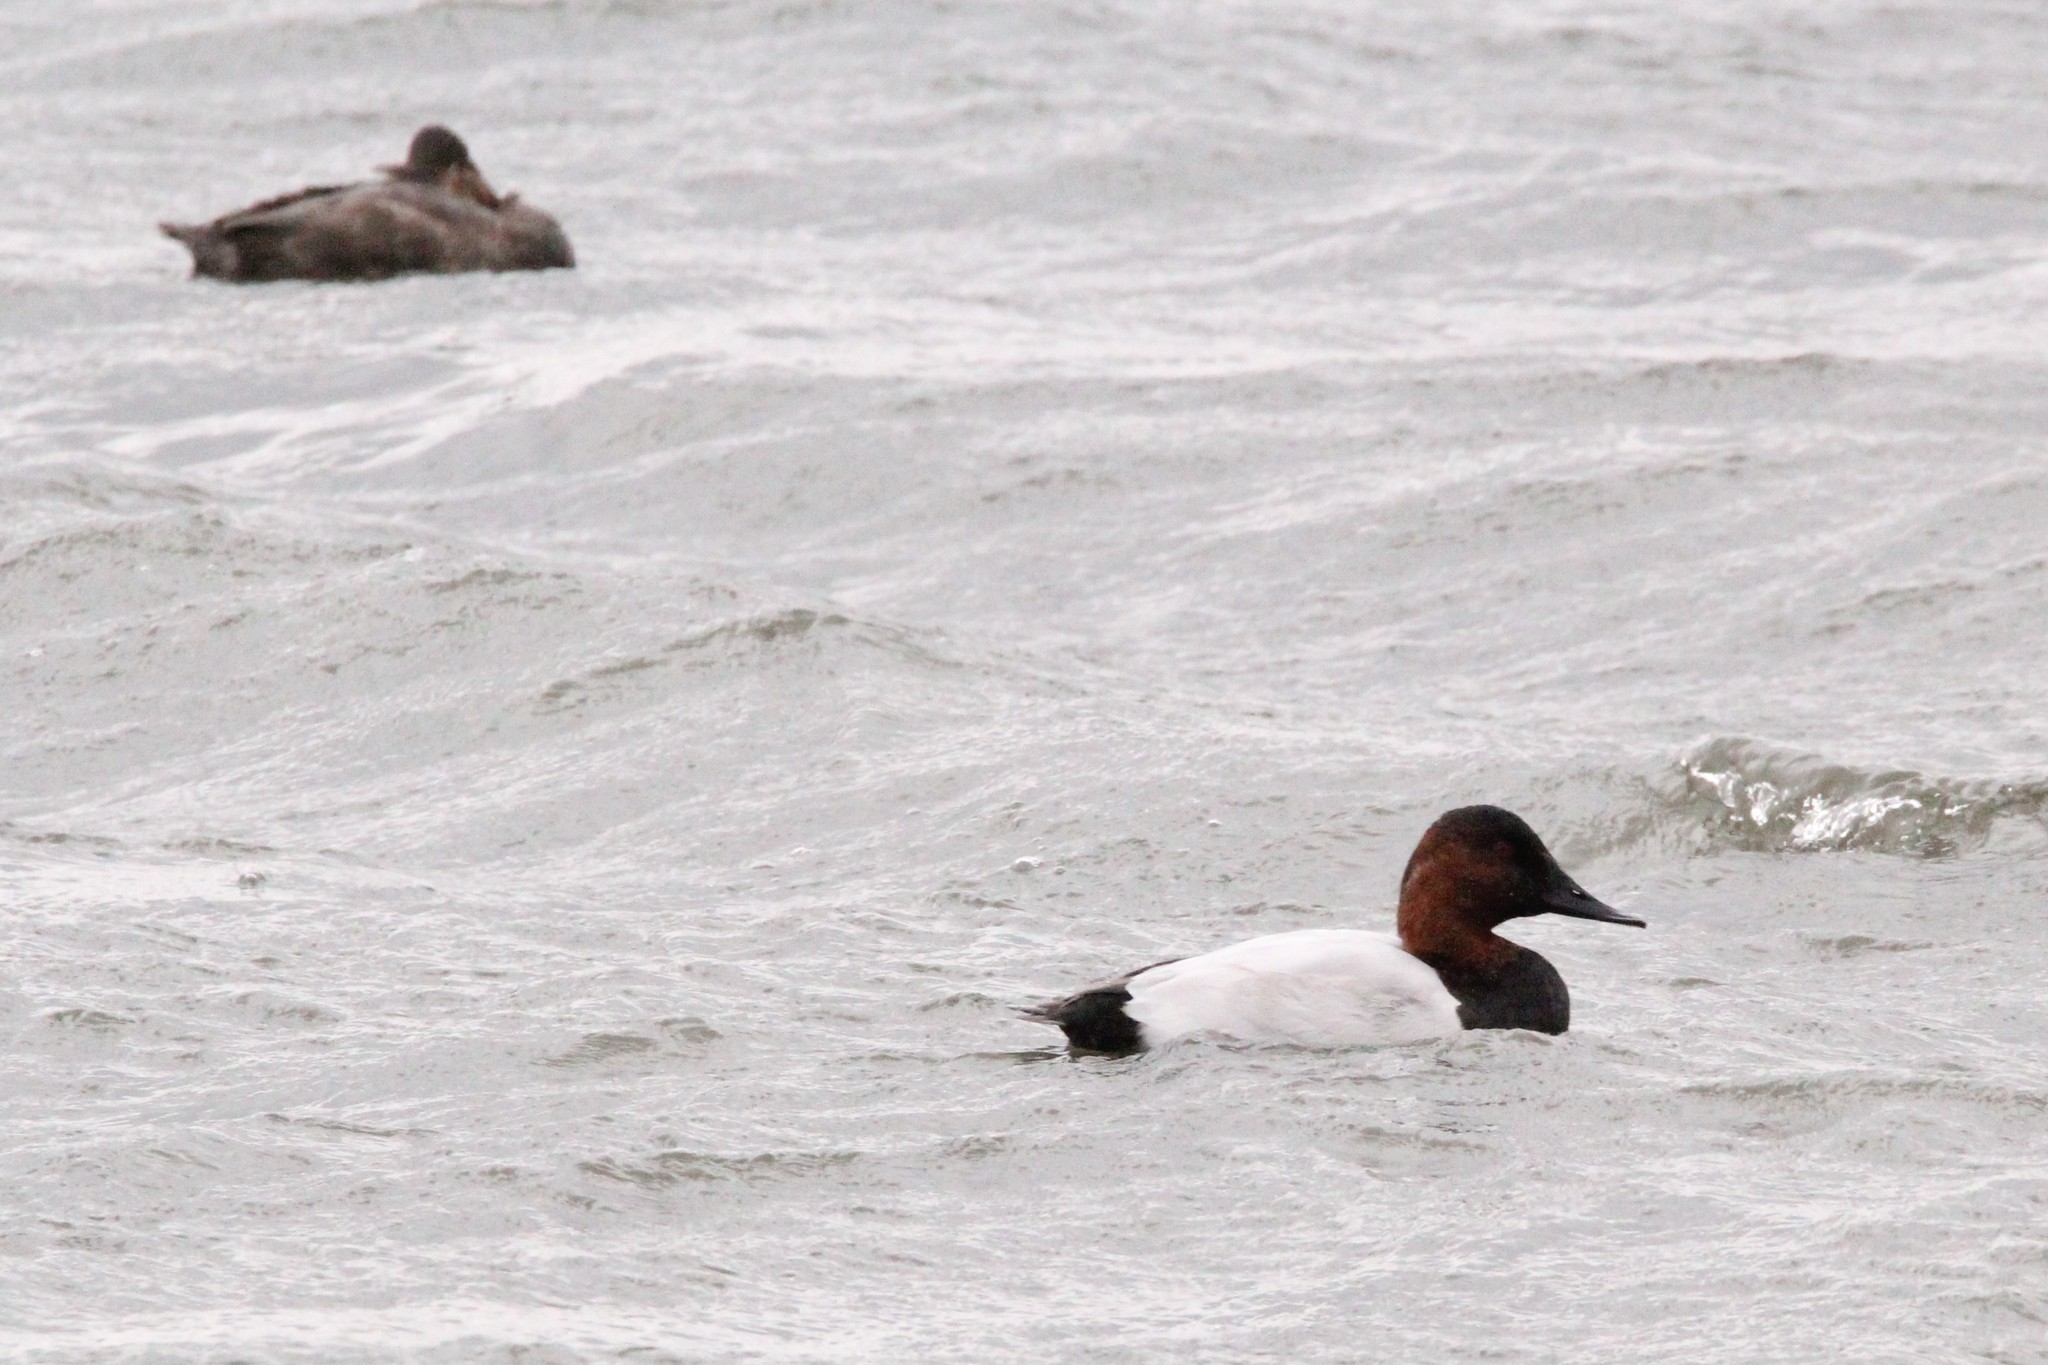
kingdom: Animalia
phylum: Chordata
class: Aves
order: Anseriformes
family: Anatidae
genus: Aythya
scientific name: Aythya valisineria
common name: Canvasback
